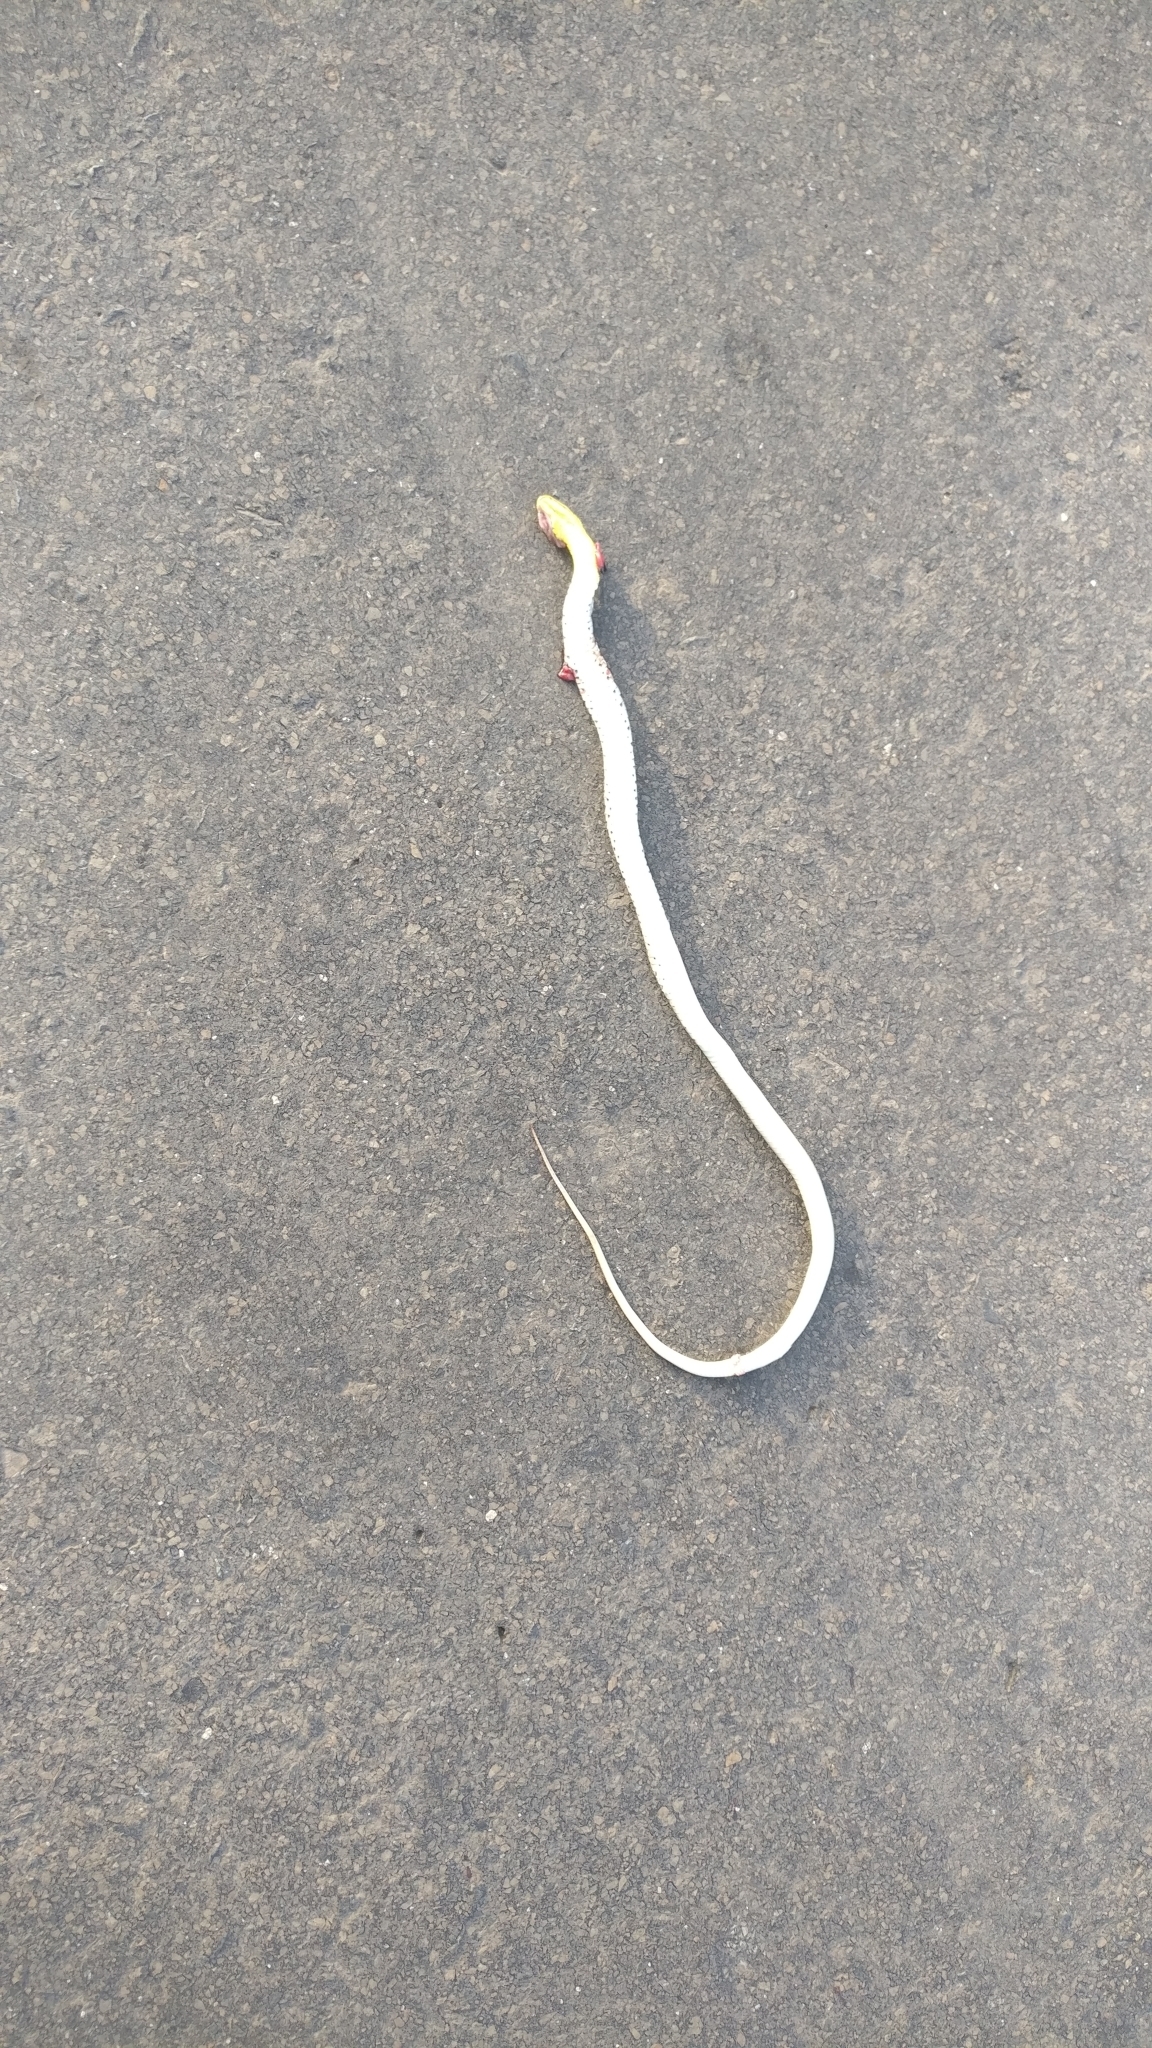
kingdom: Animalia
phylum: Chordata
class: Squamata
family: Colubridae
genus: Amphiesma
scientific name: Amphiesma stolatum
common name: Buff striped keelback
